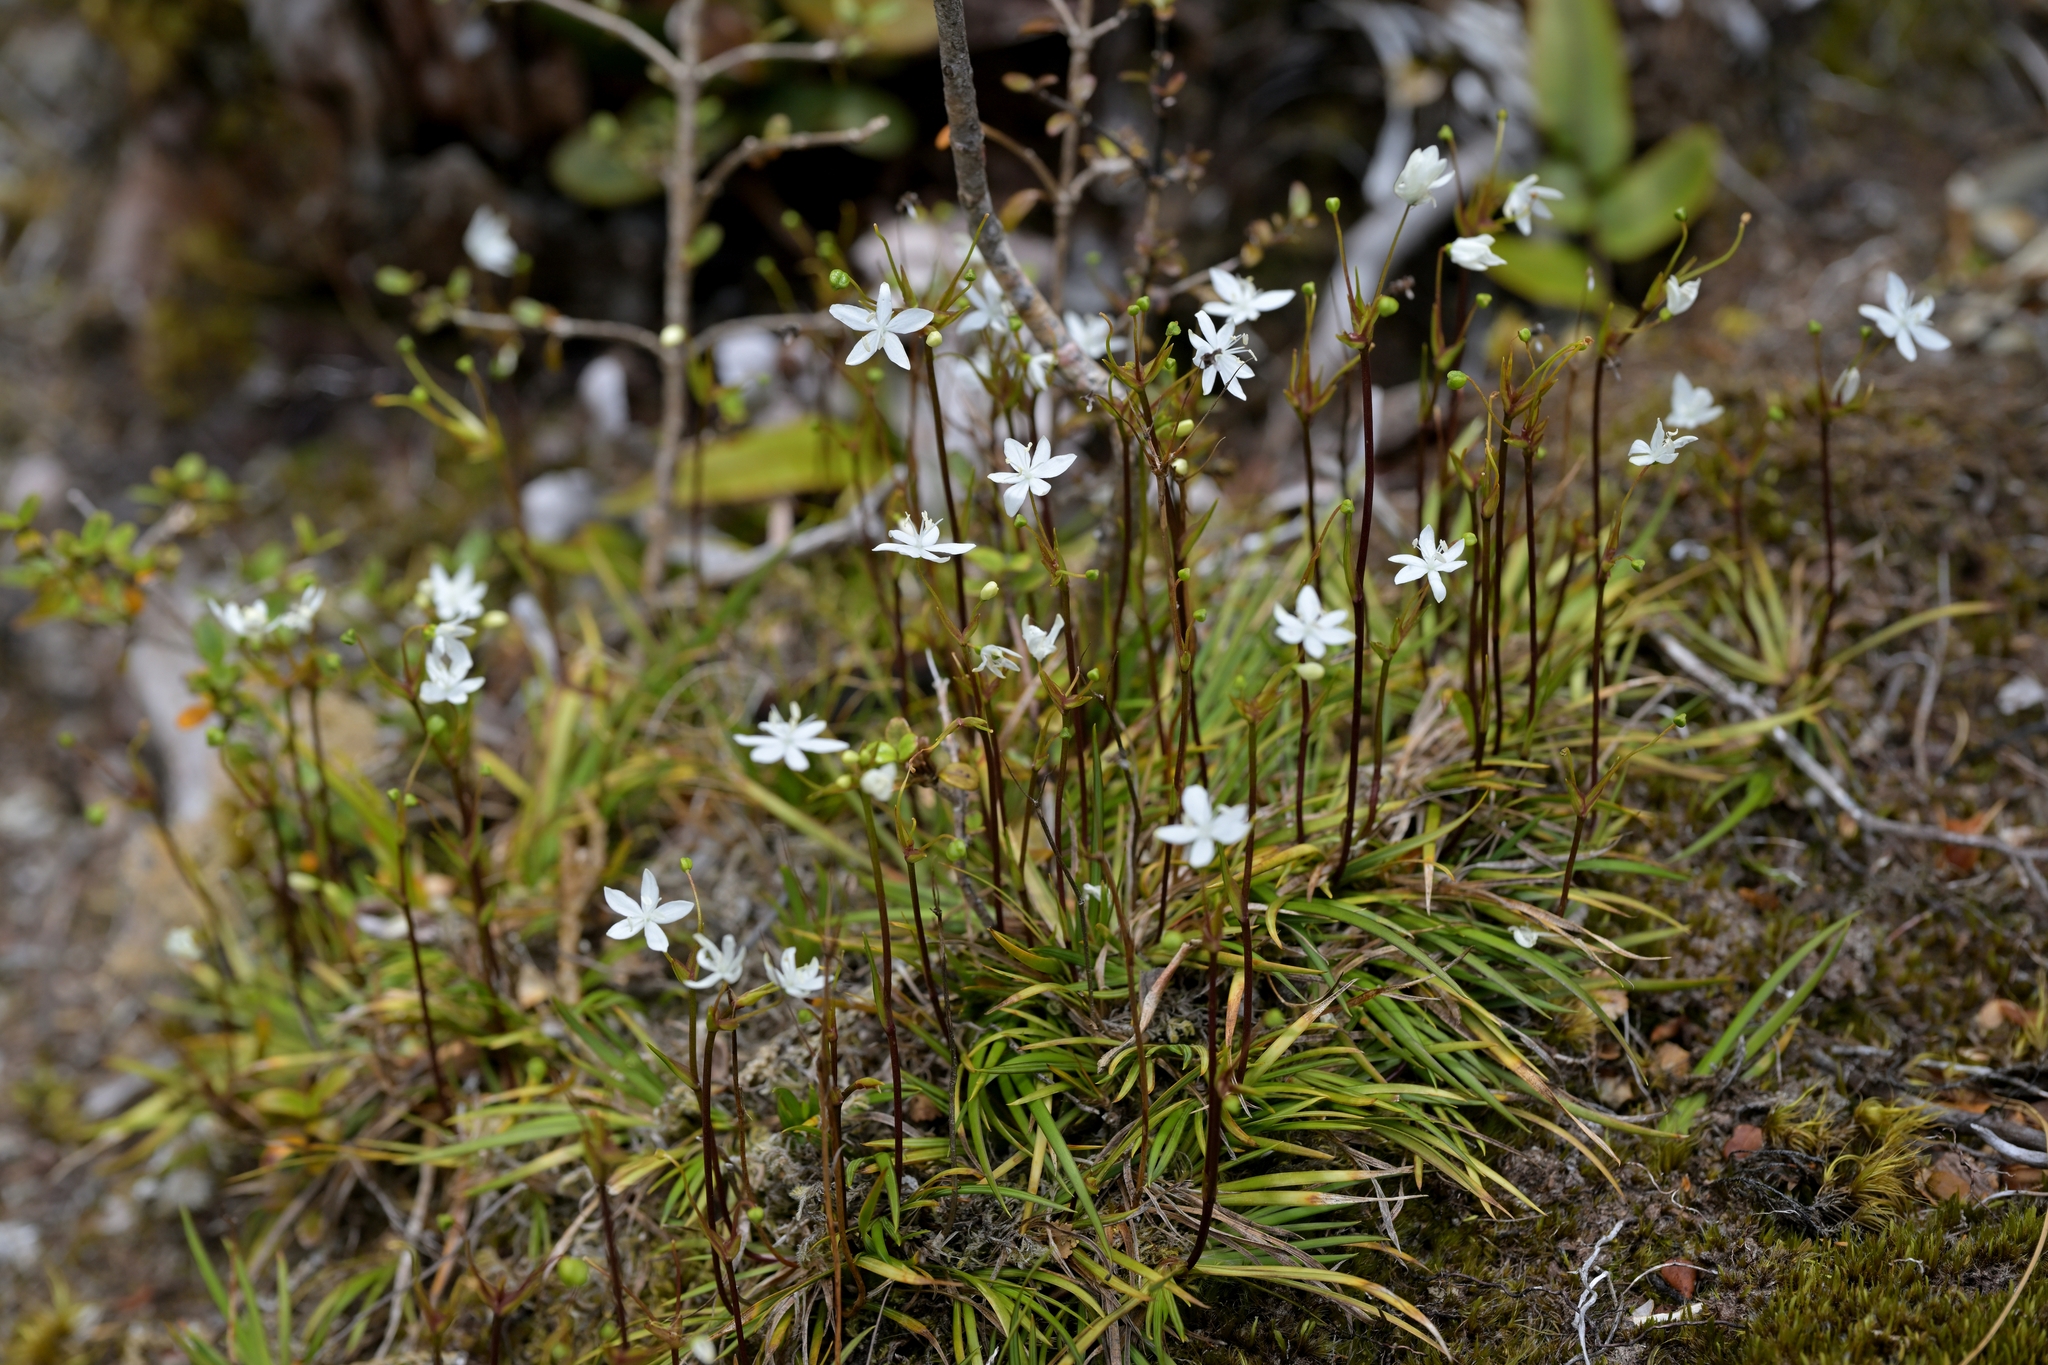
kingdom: Plantae
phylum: Tracheophyta
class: Liliopsida
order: Asparagales
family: Iridaceae
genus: Libertia
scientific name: Libertia micrantha
